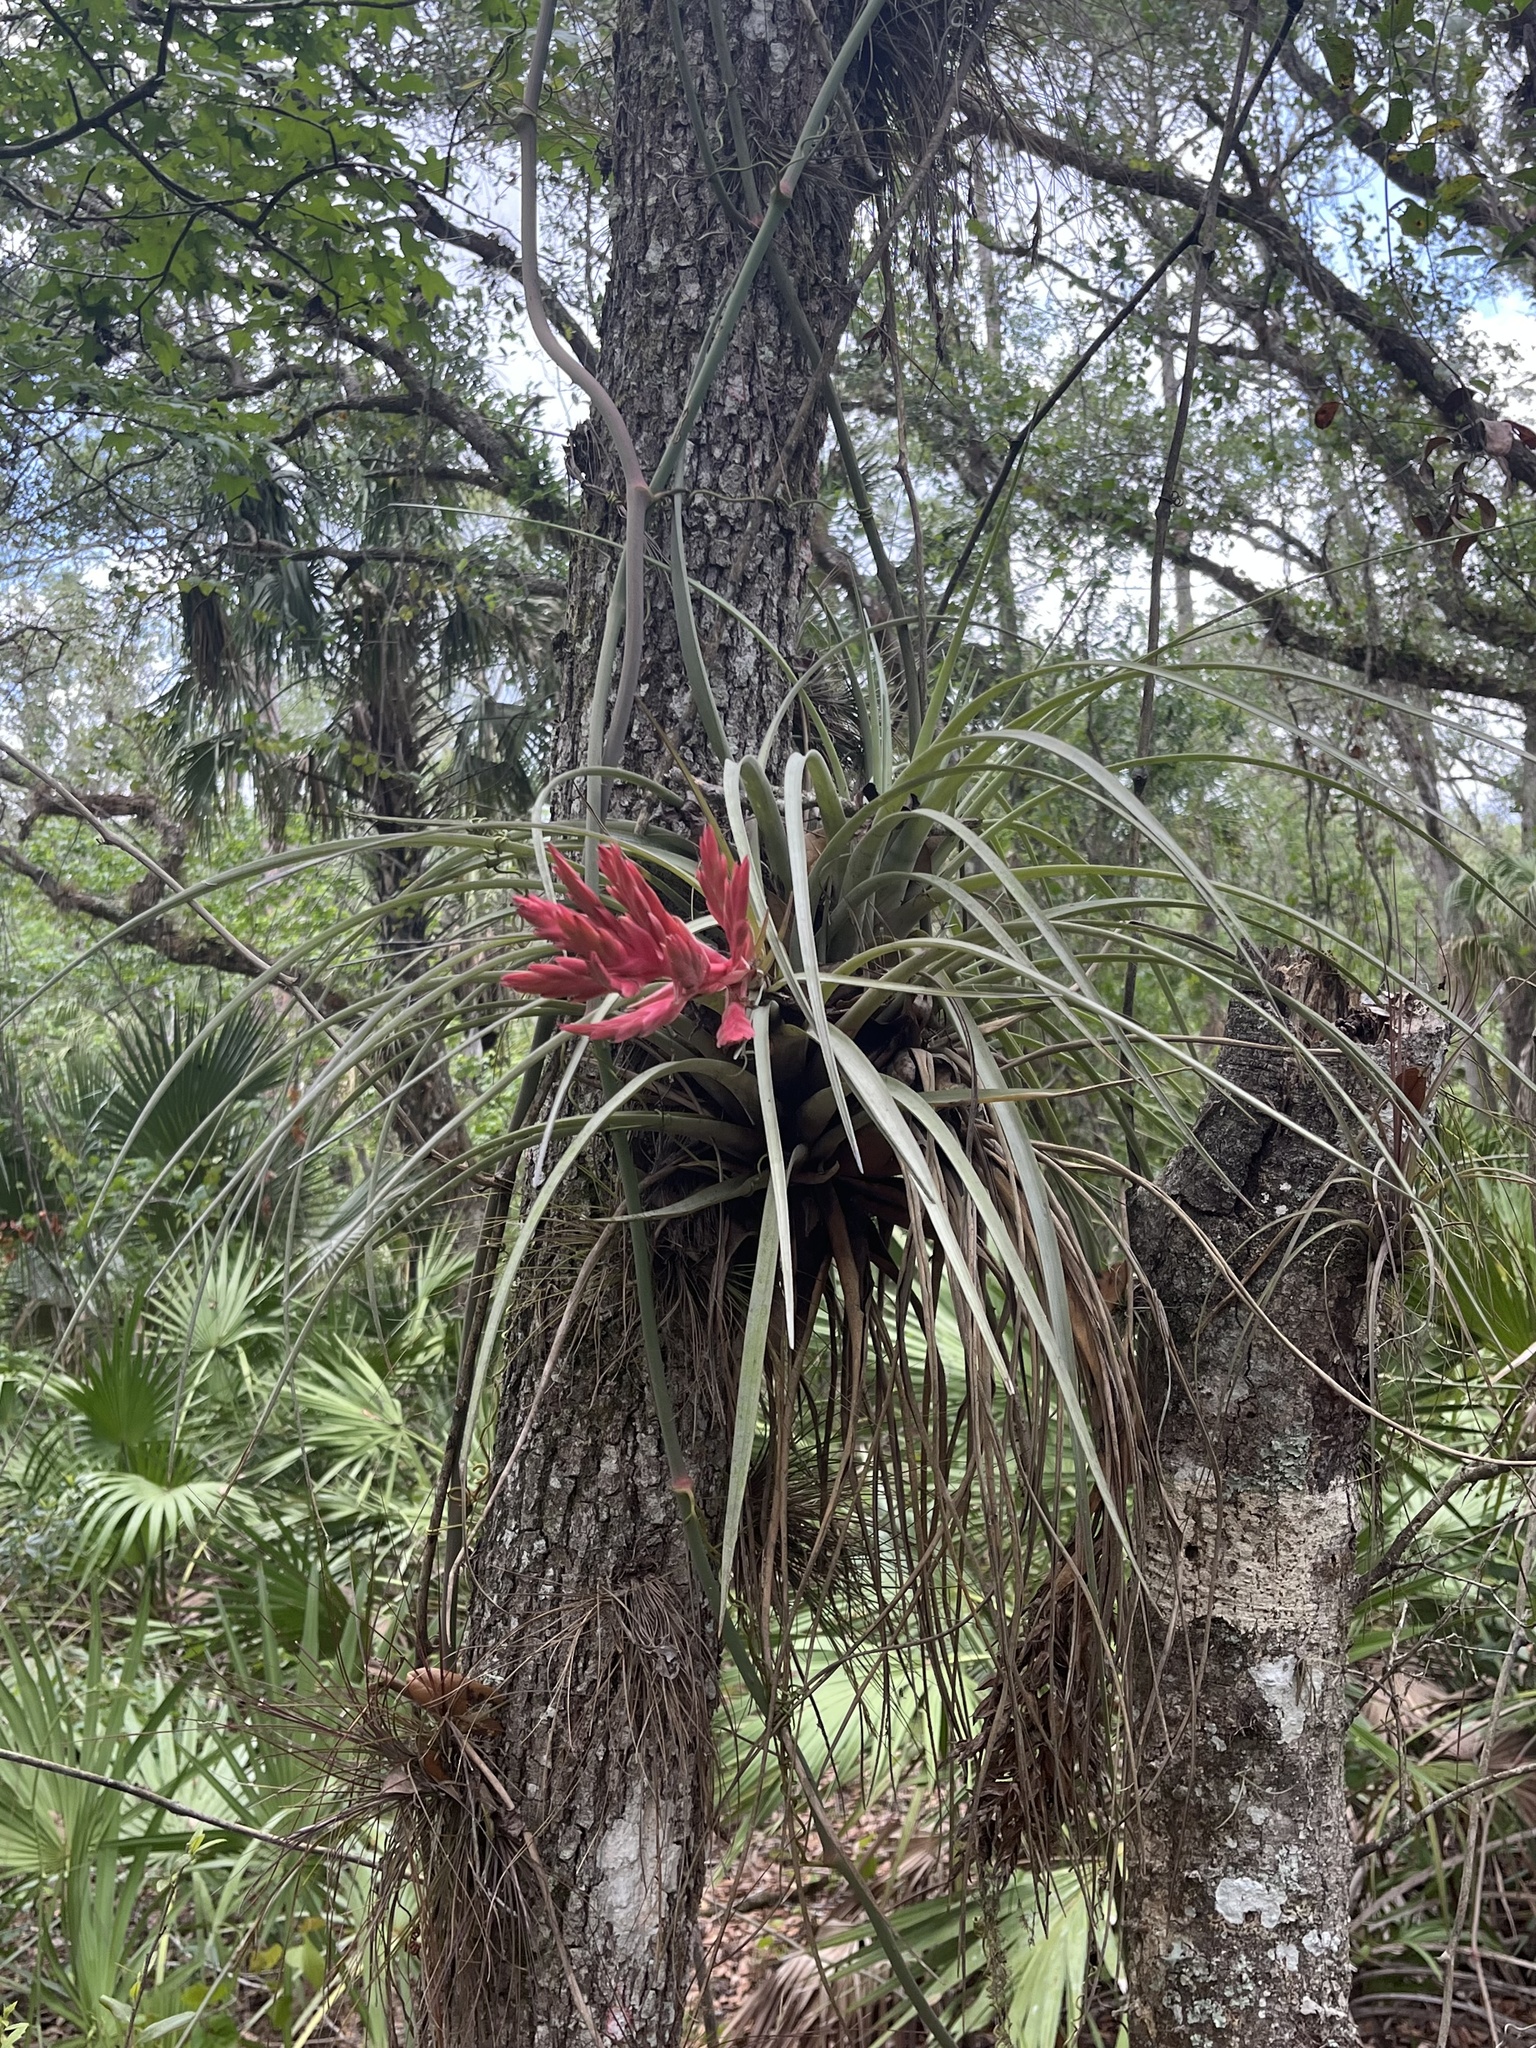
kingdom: Plantae
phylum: Tracheophyta
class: Liliopsida
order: Poales
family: Bromeliaceae
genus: Tillandsia
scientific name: Tillandsia fasciculata
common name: Giant airplant
